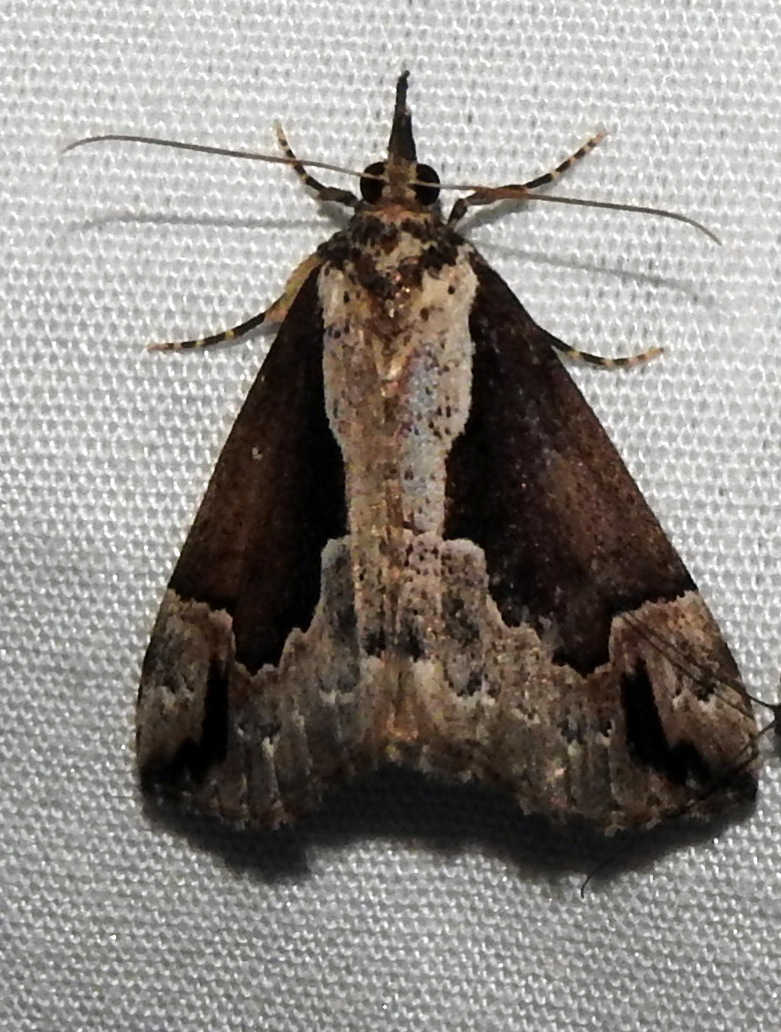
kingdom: Animalia
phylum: Arthropoda
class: Insecta
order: Lepidoptera
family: Erebidae
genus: Hypena
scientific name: Hypena baltimoralis
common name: Baltimore snout
